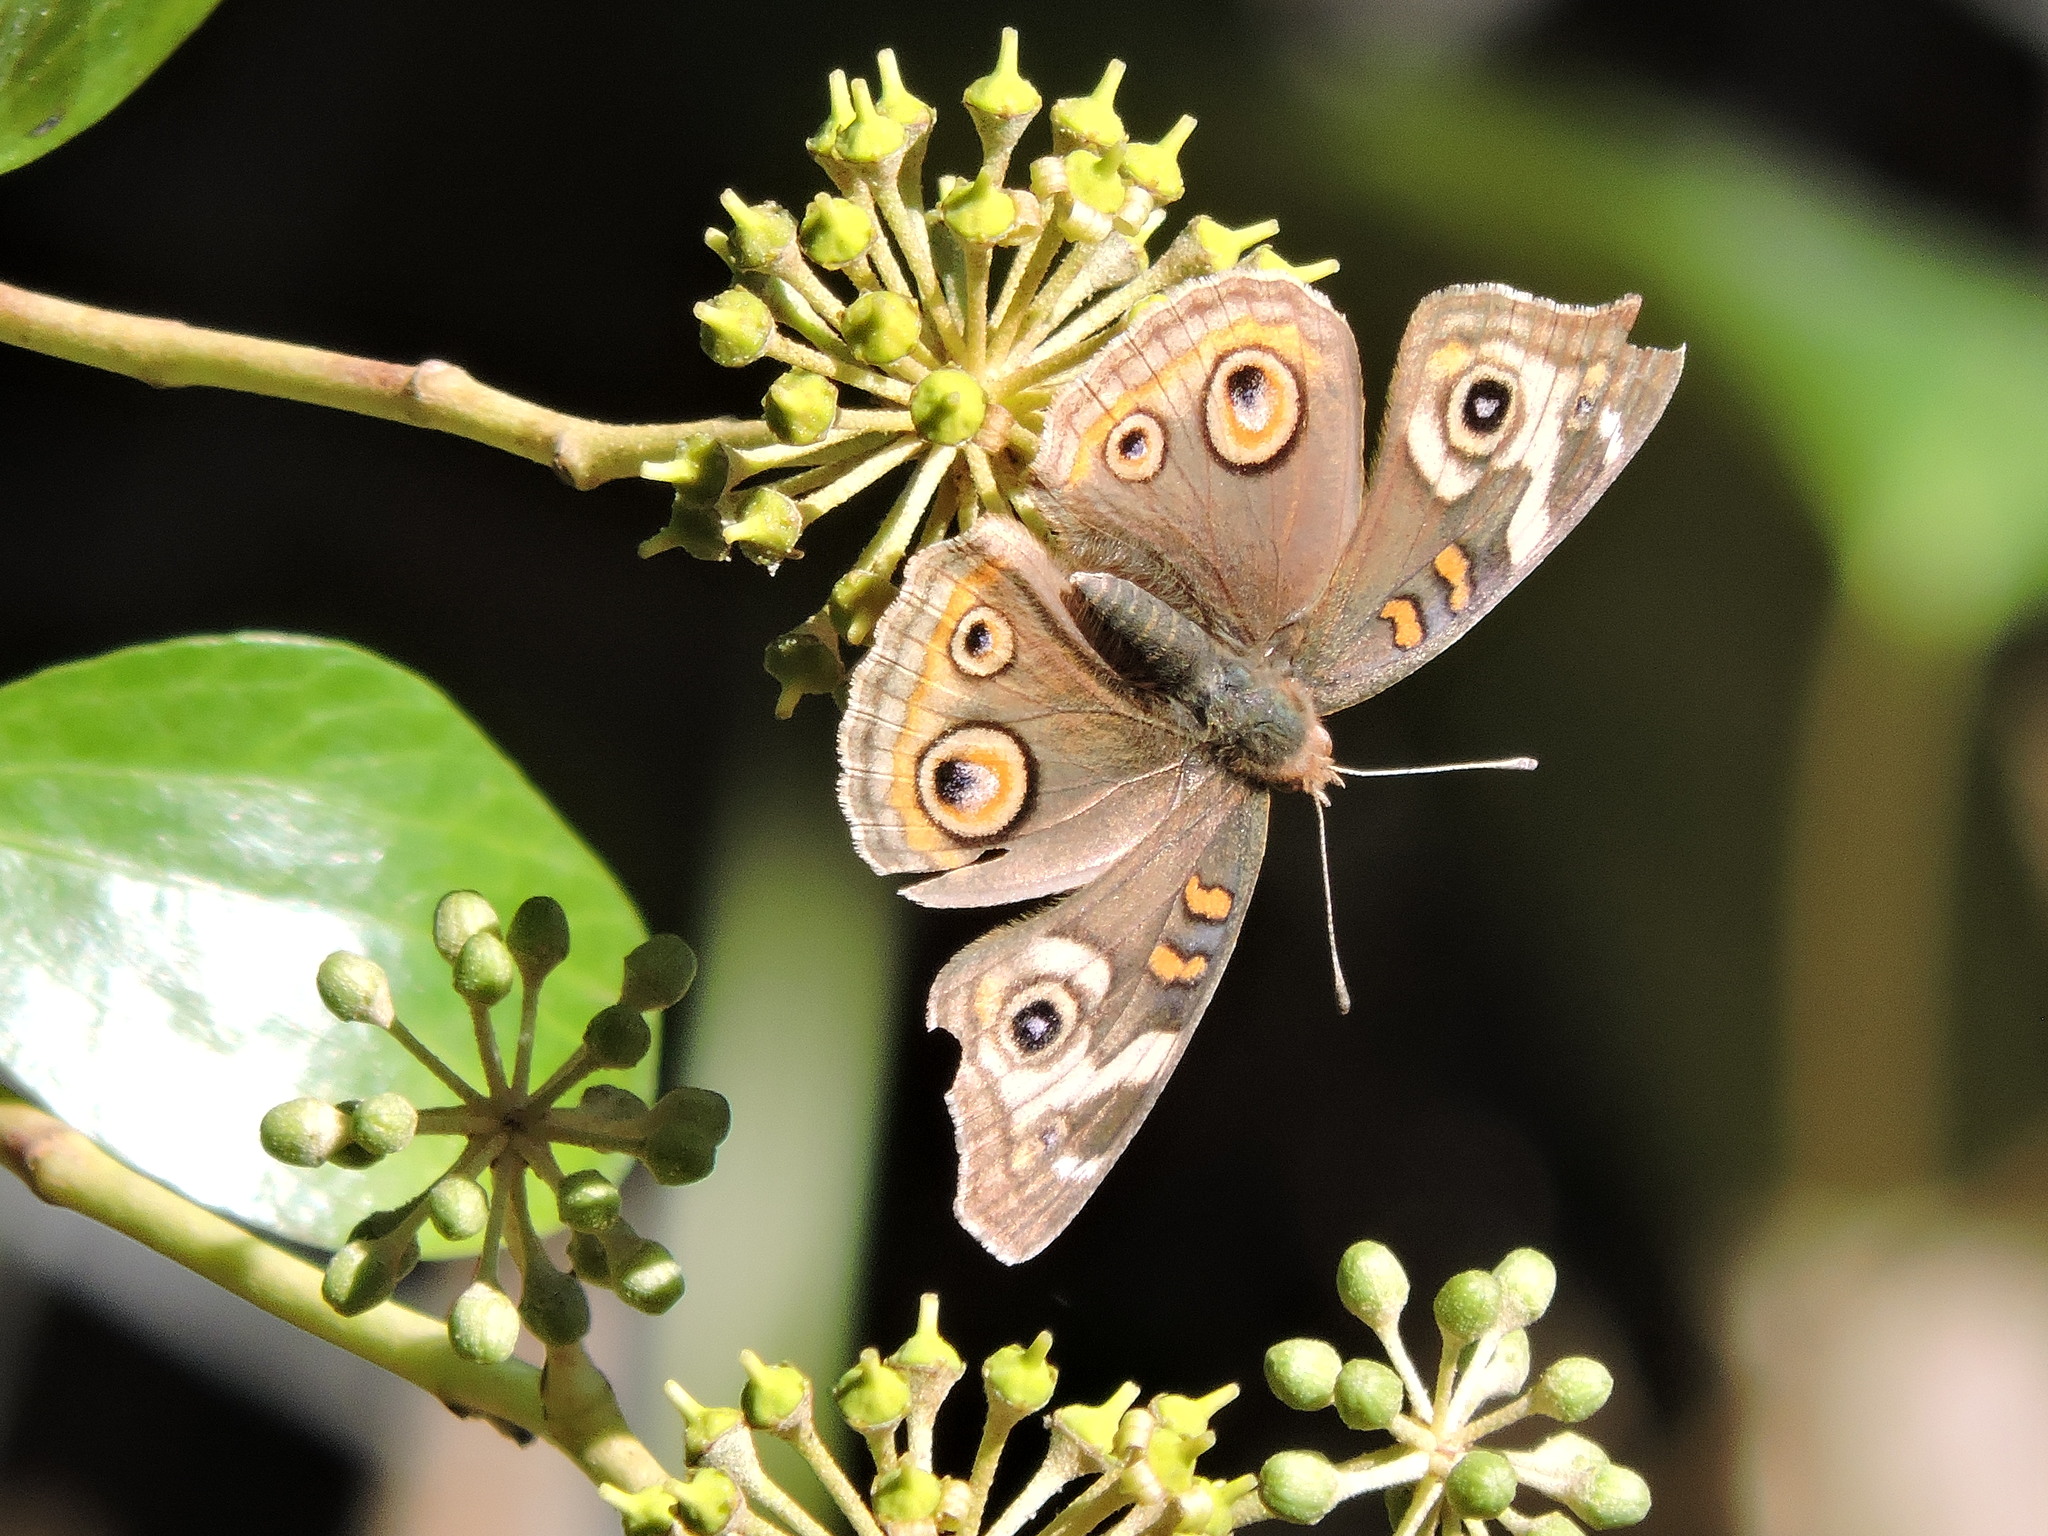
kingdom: Animalia
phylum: Arthropoda
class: Insecta
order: Lepidoptera
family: Nymphalidae
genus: Junonia
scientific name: Junonia grisea
